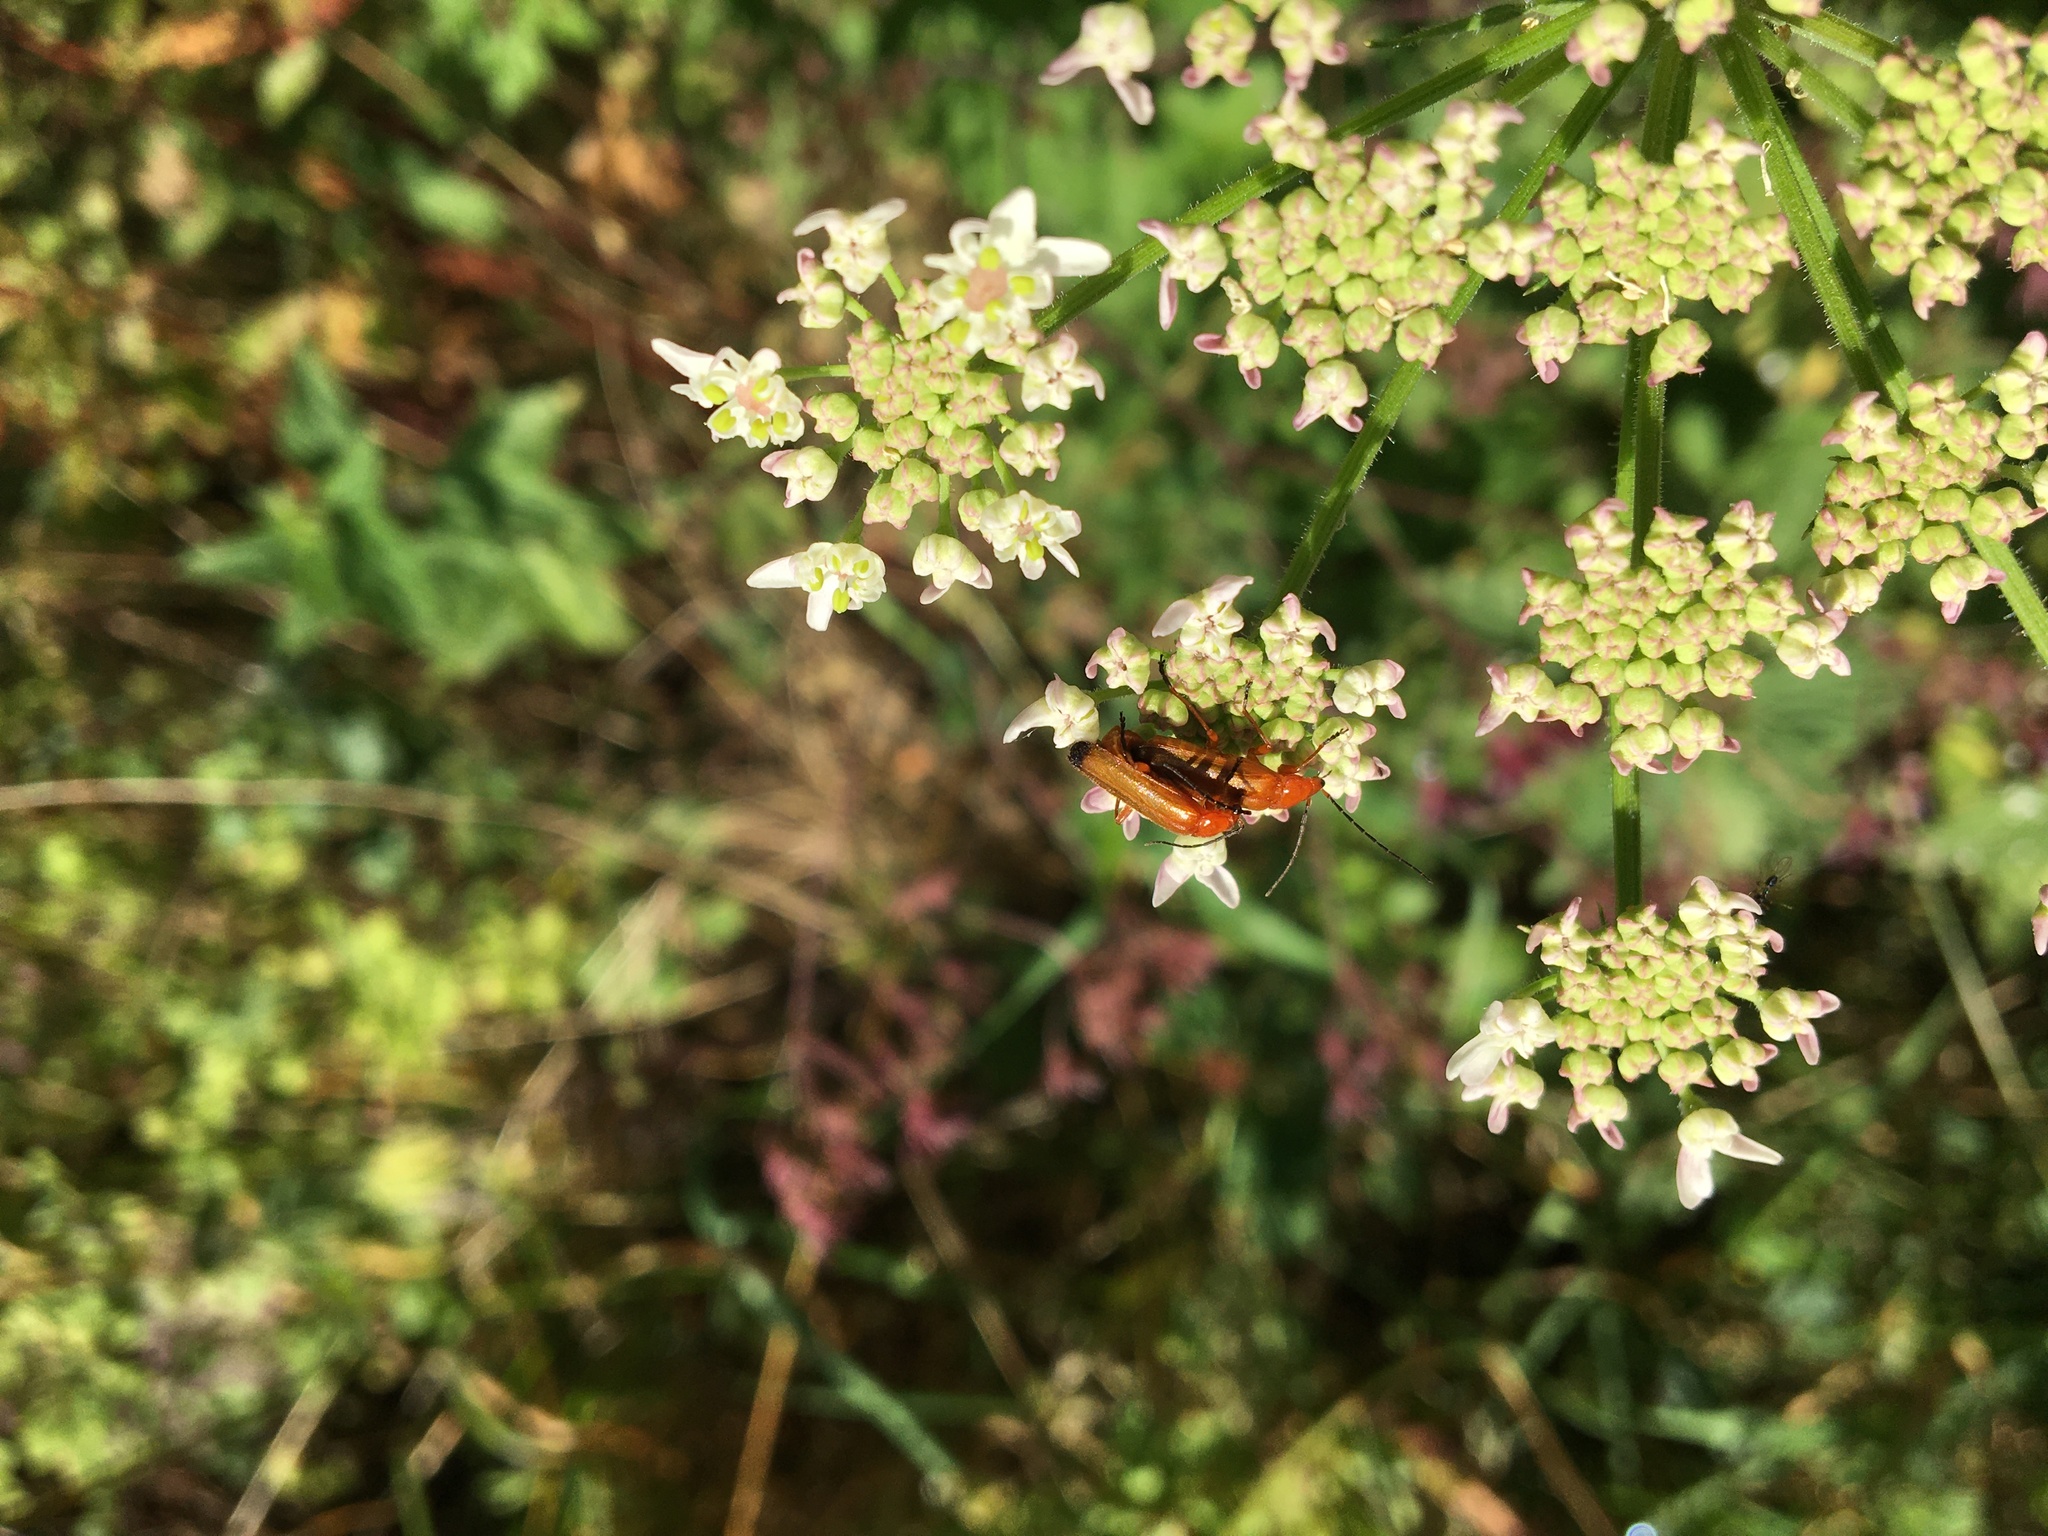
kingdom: Animalia
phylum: Arthropoda
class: Insecta
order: Coleoptera
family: Cantharidae
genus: Rhagonycha
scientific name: Rhagonycha fulva
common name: Common red soldier beetle
